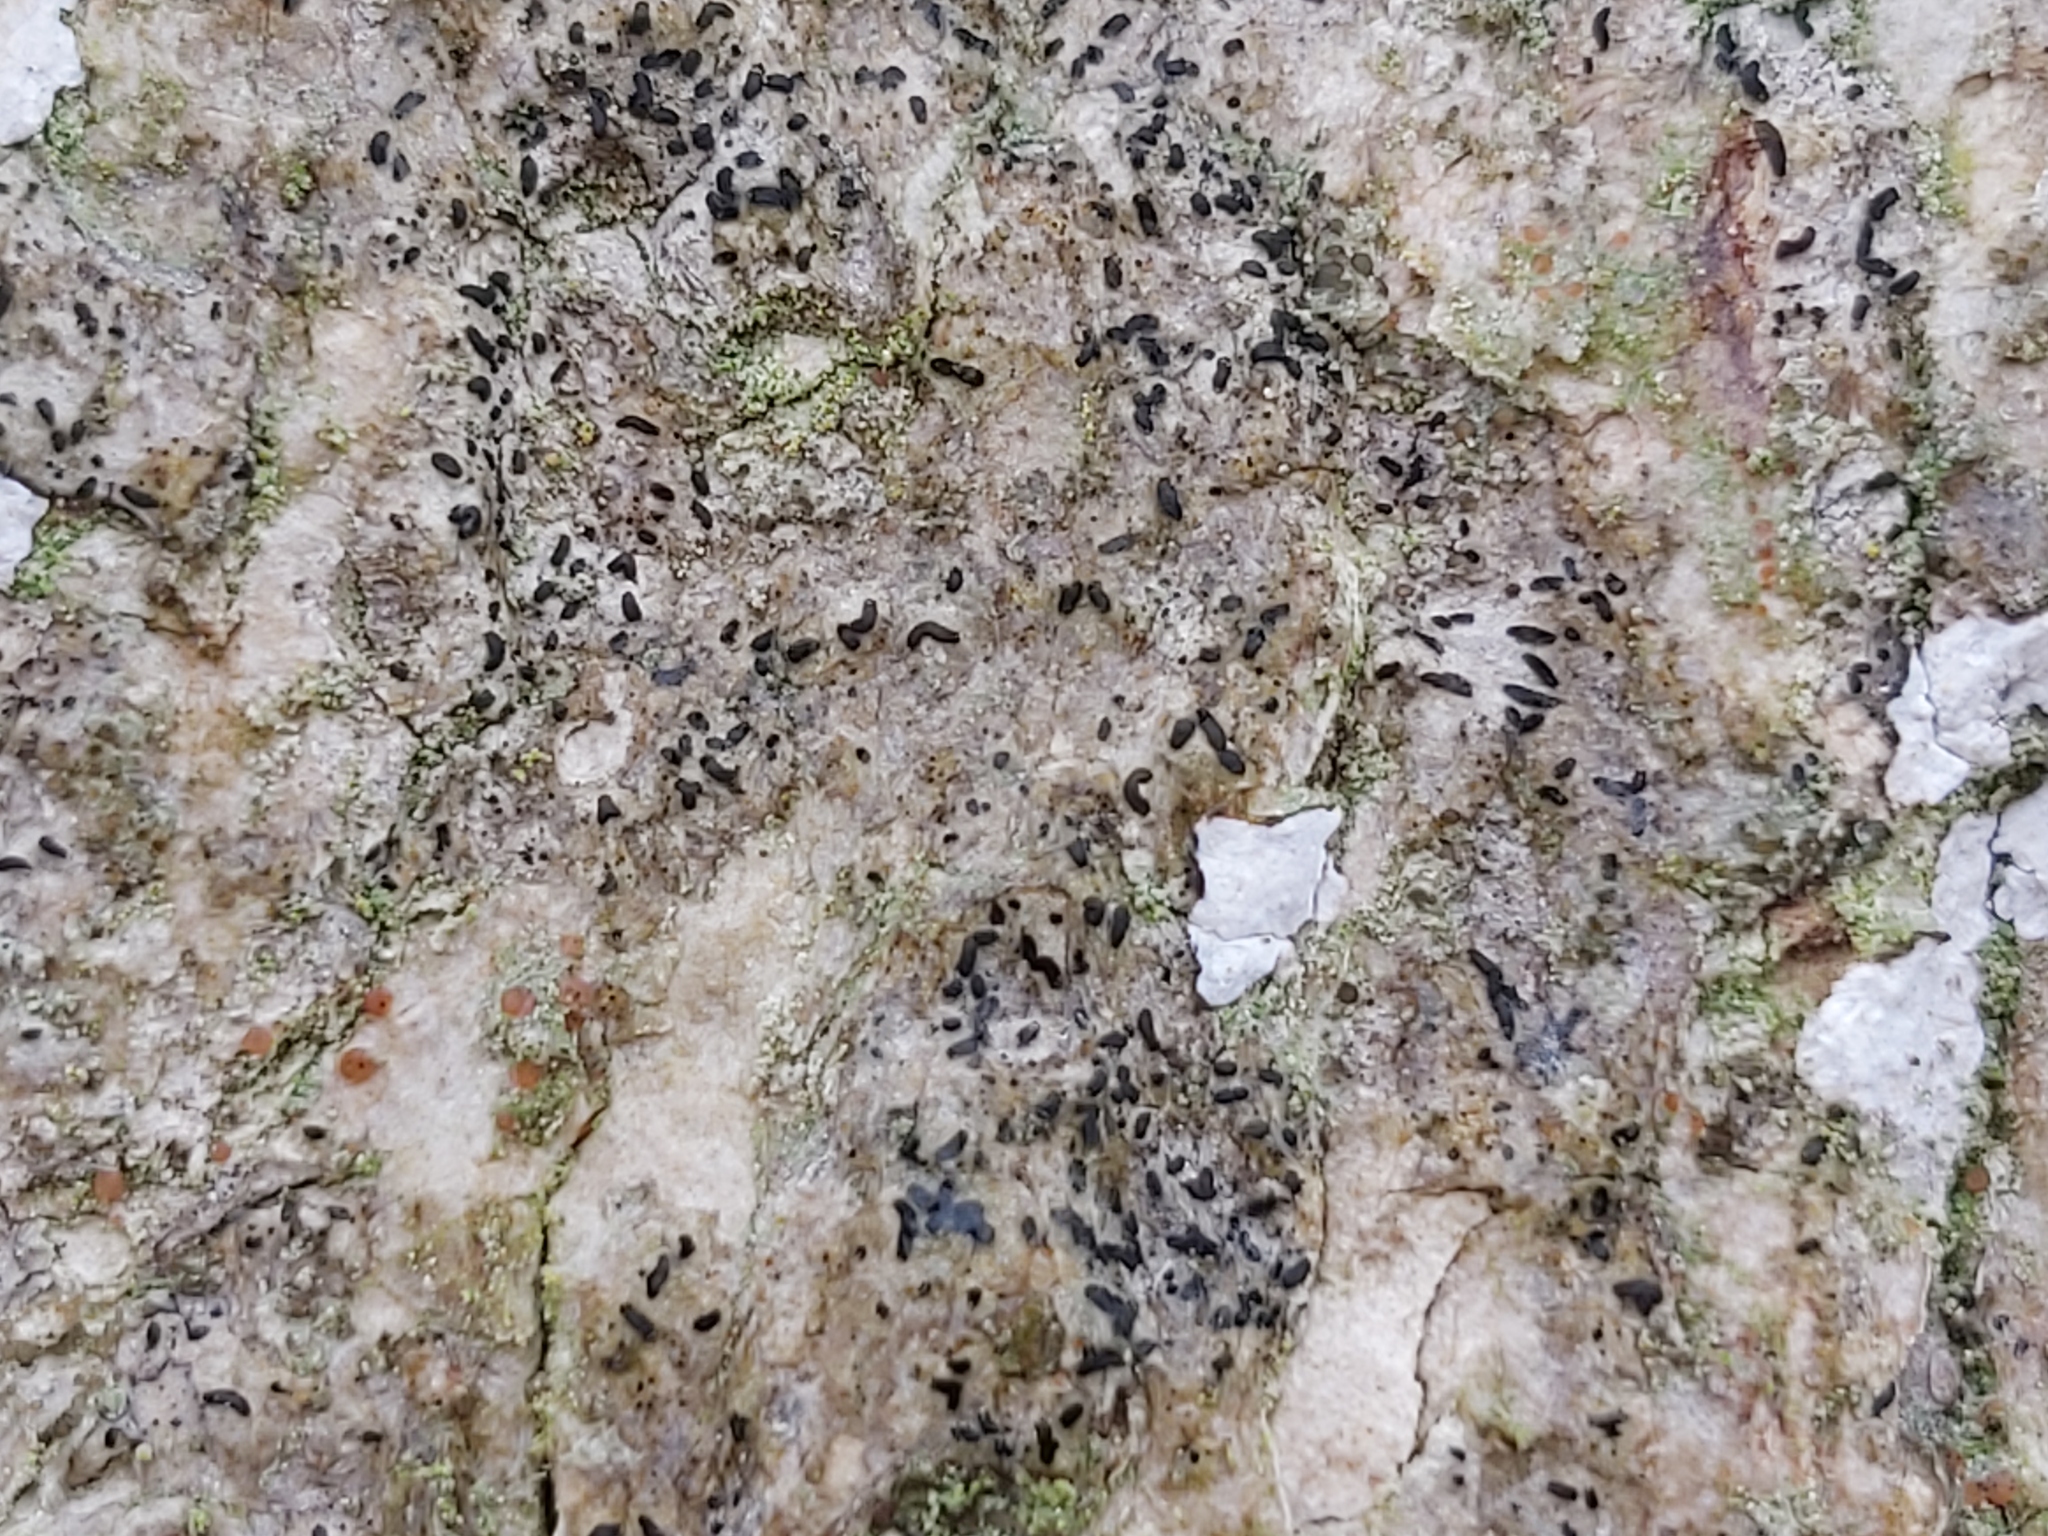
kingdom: Fungi
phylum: Ascomycota
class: Arthoniomycetes
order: Arthoniales
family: Lecanographaceae
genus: Alyxoria
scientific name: Alyxoria varia
